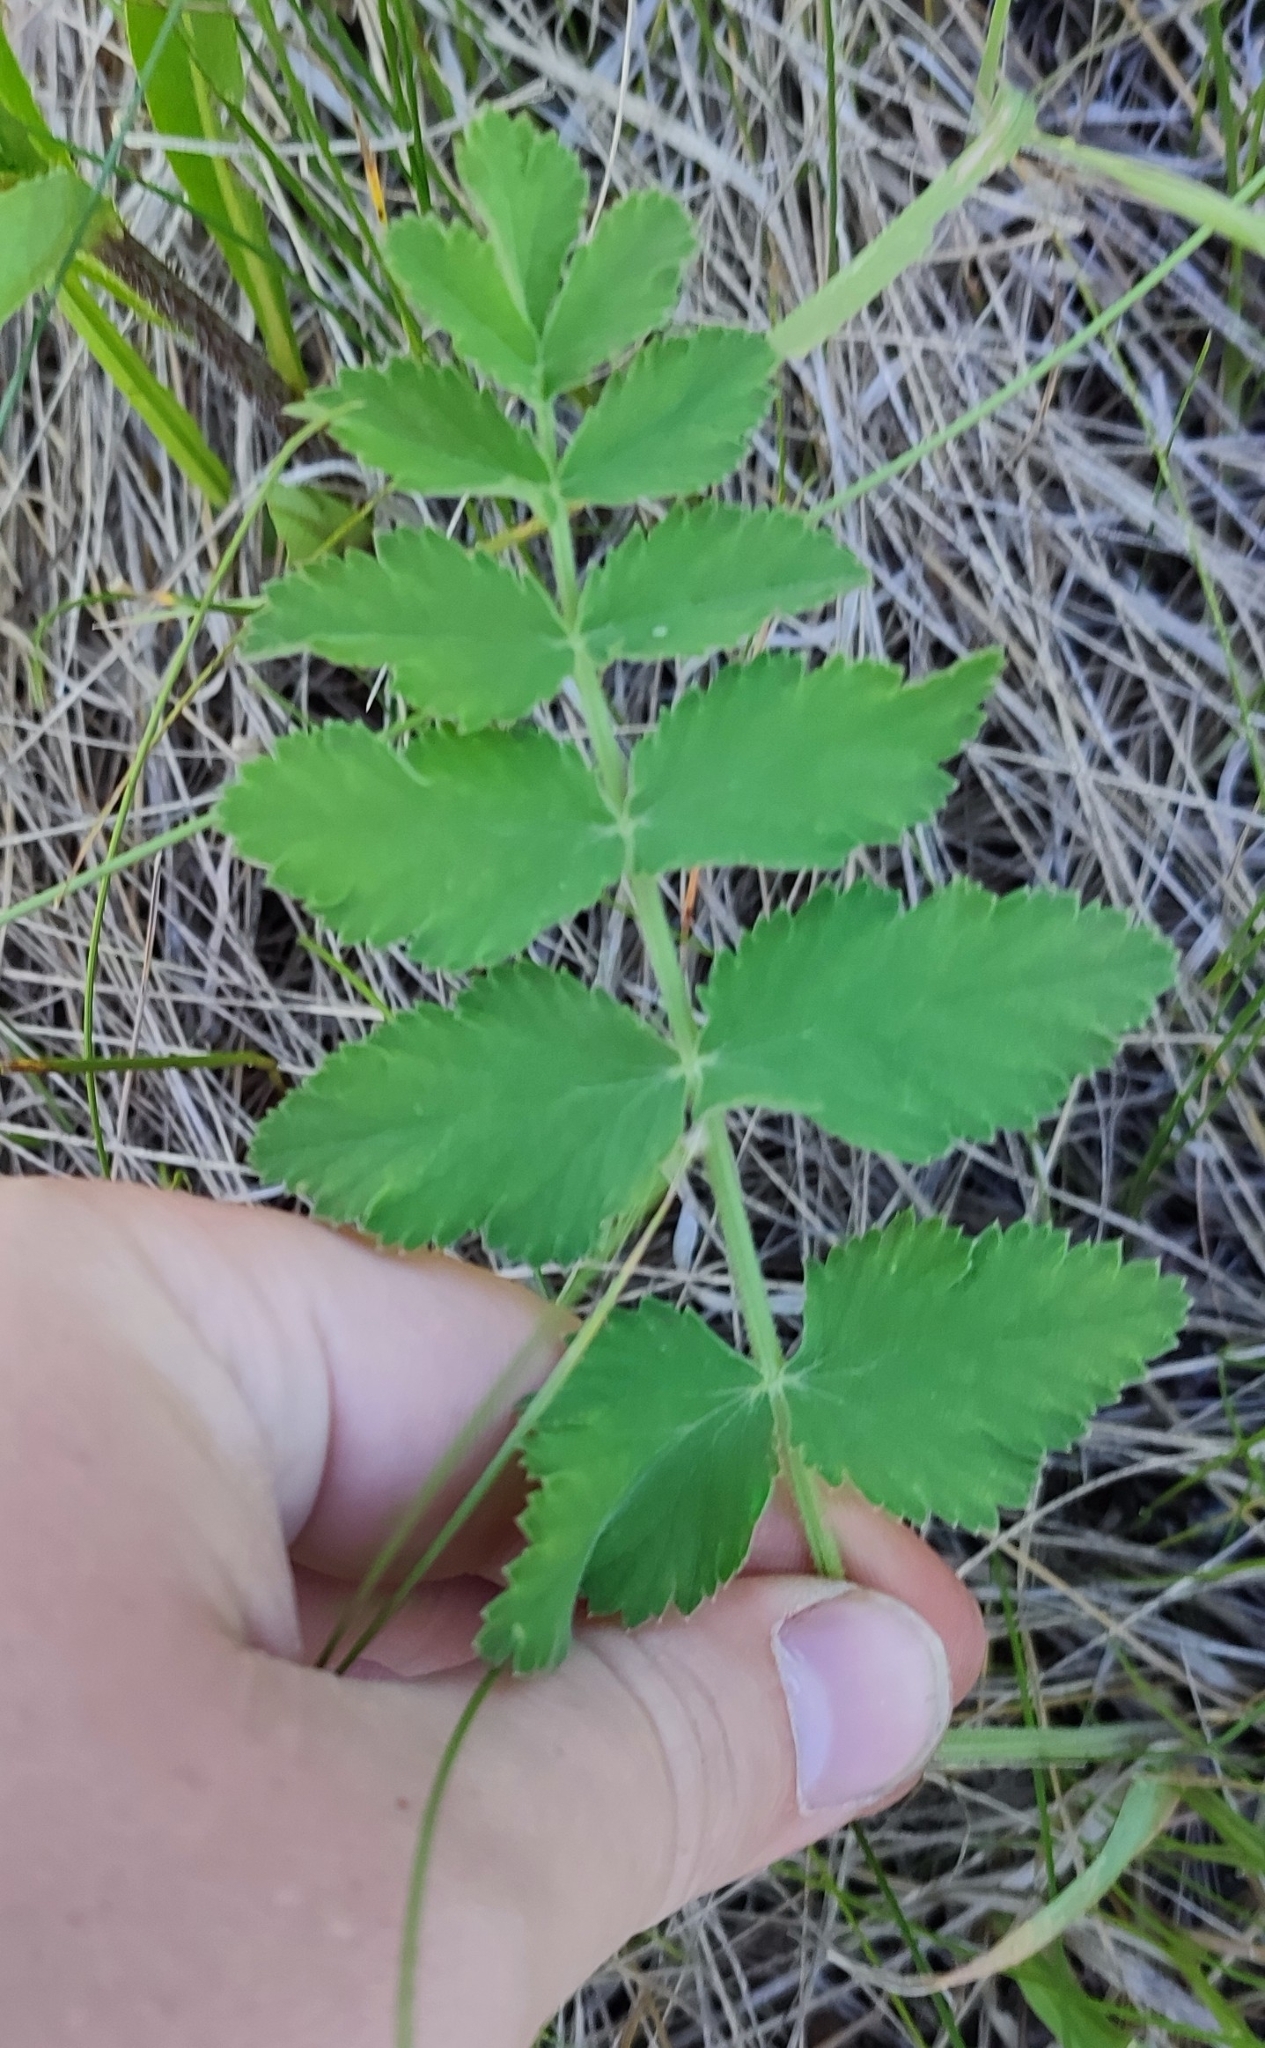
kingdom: Plantae
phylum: Tracheophyta
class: Magnoliopsida
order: Apiales
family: Apiaceae
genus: Pimpinella
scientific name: Pimpinella saxifraga
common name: Burnet-saxifrage
